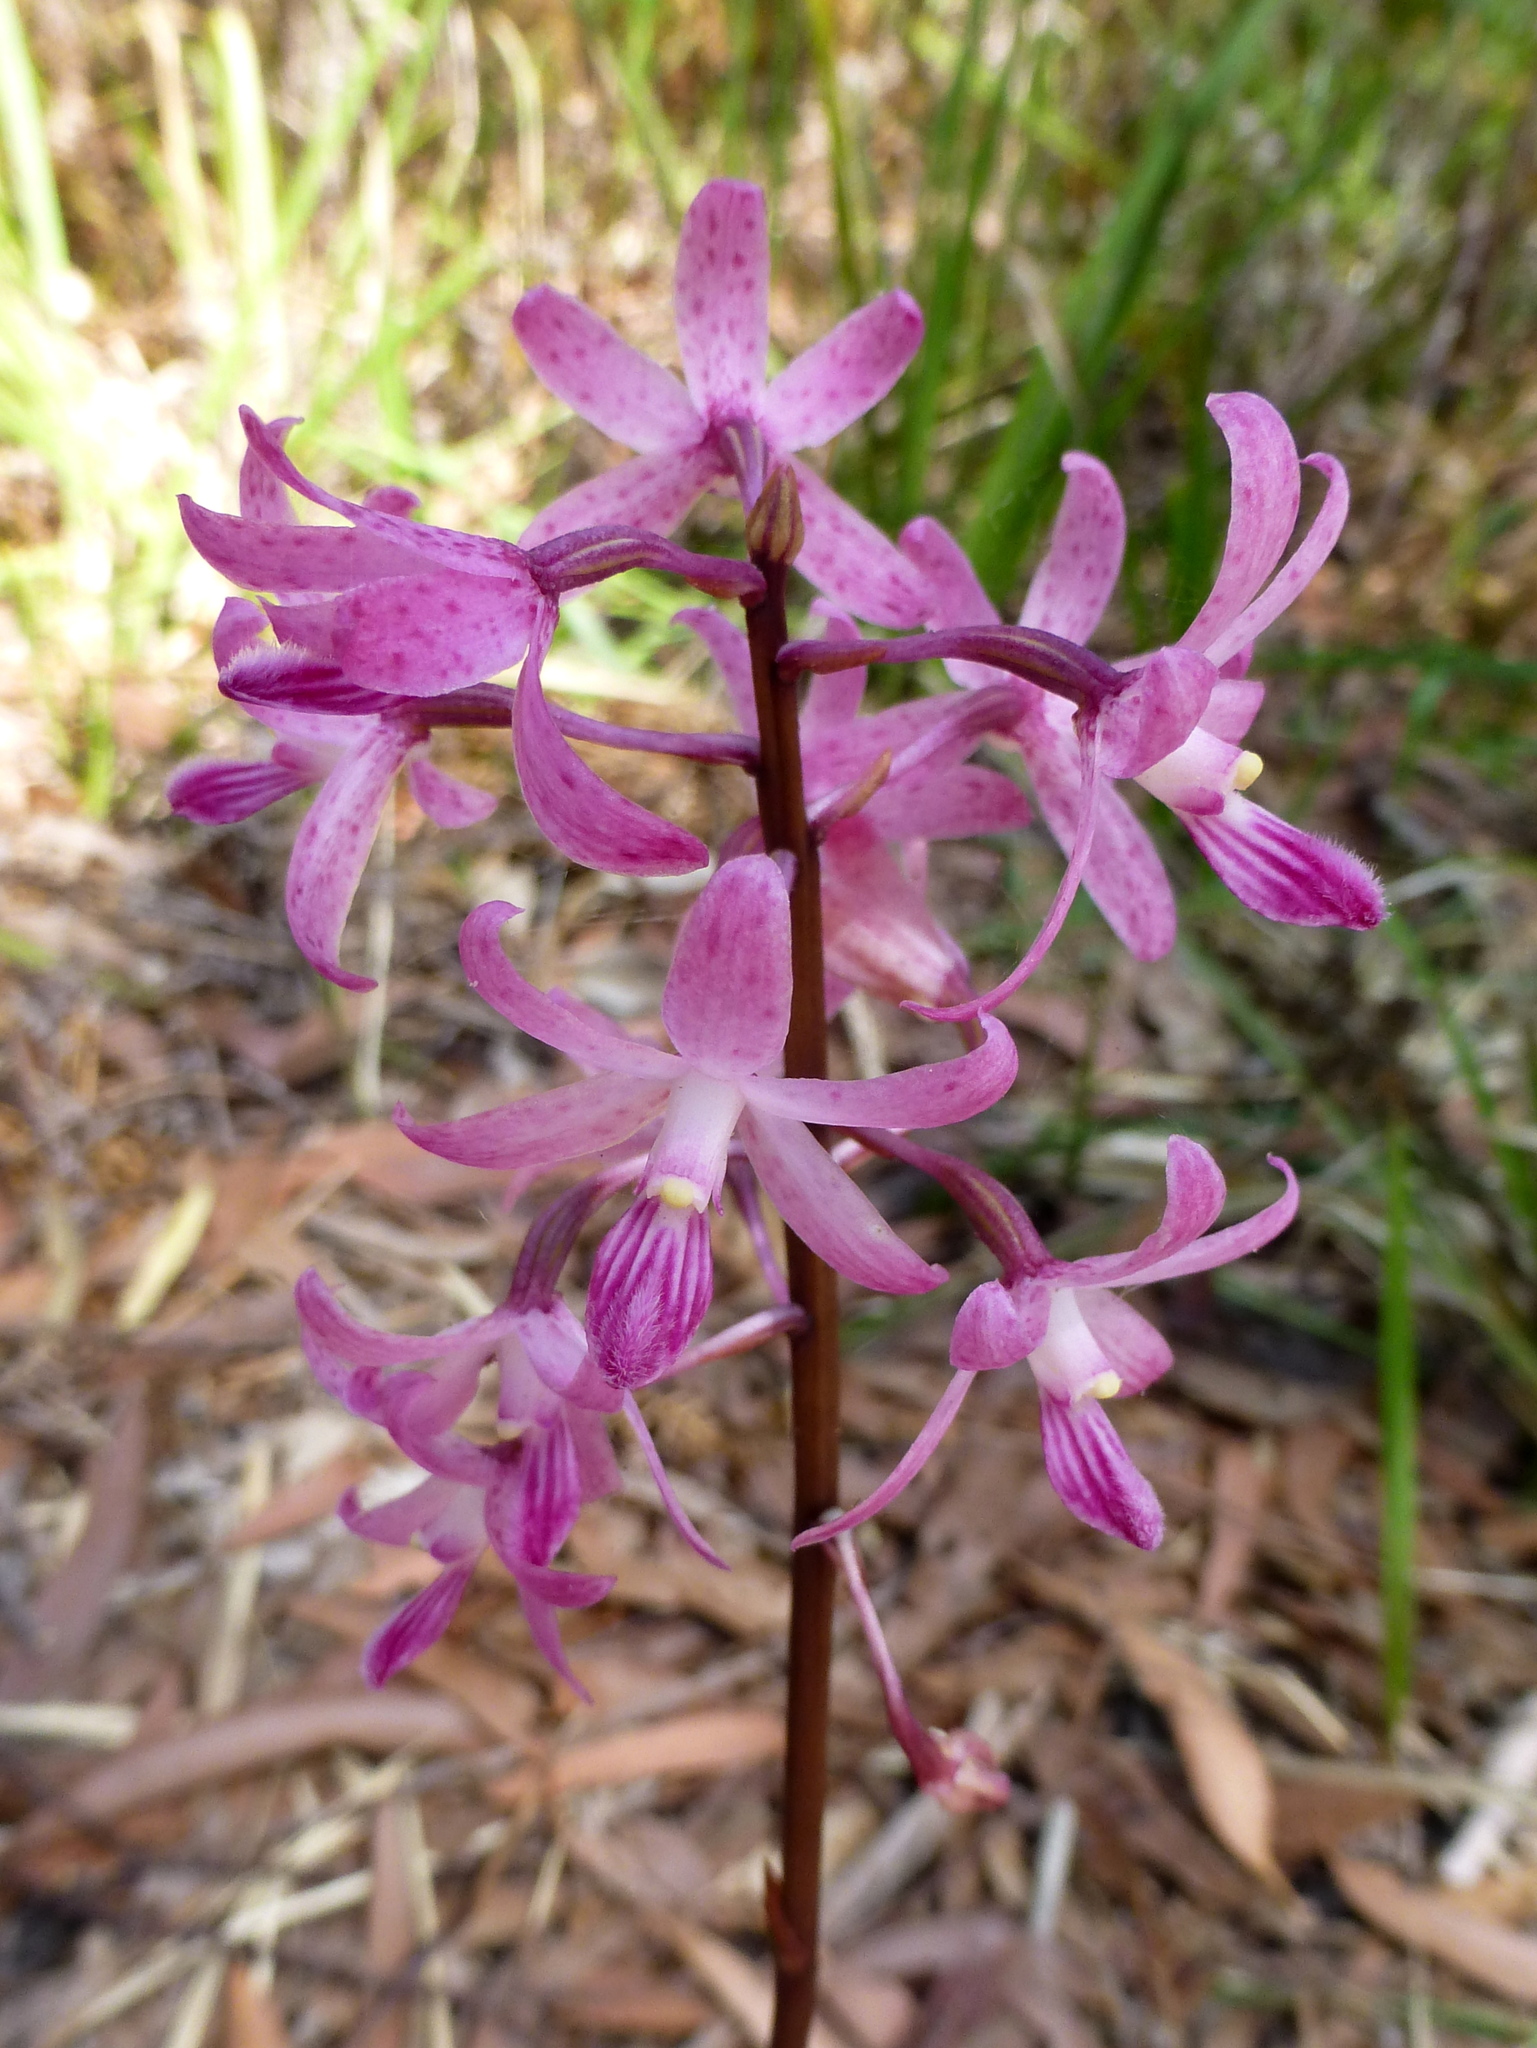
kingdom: Plantae
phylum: Tracheophyta
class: Liliopsida
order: Asparagales
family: Orchidaceae
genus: Dipodium
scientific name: Dipodium roseum
